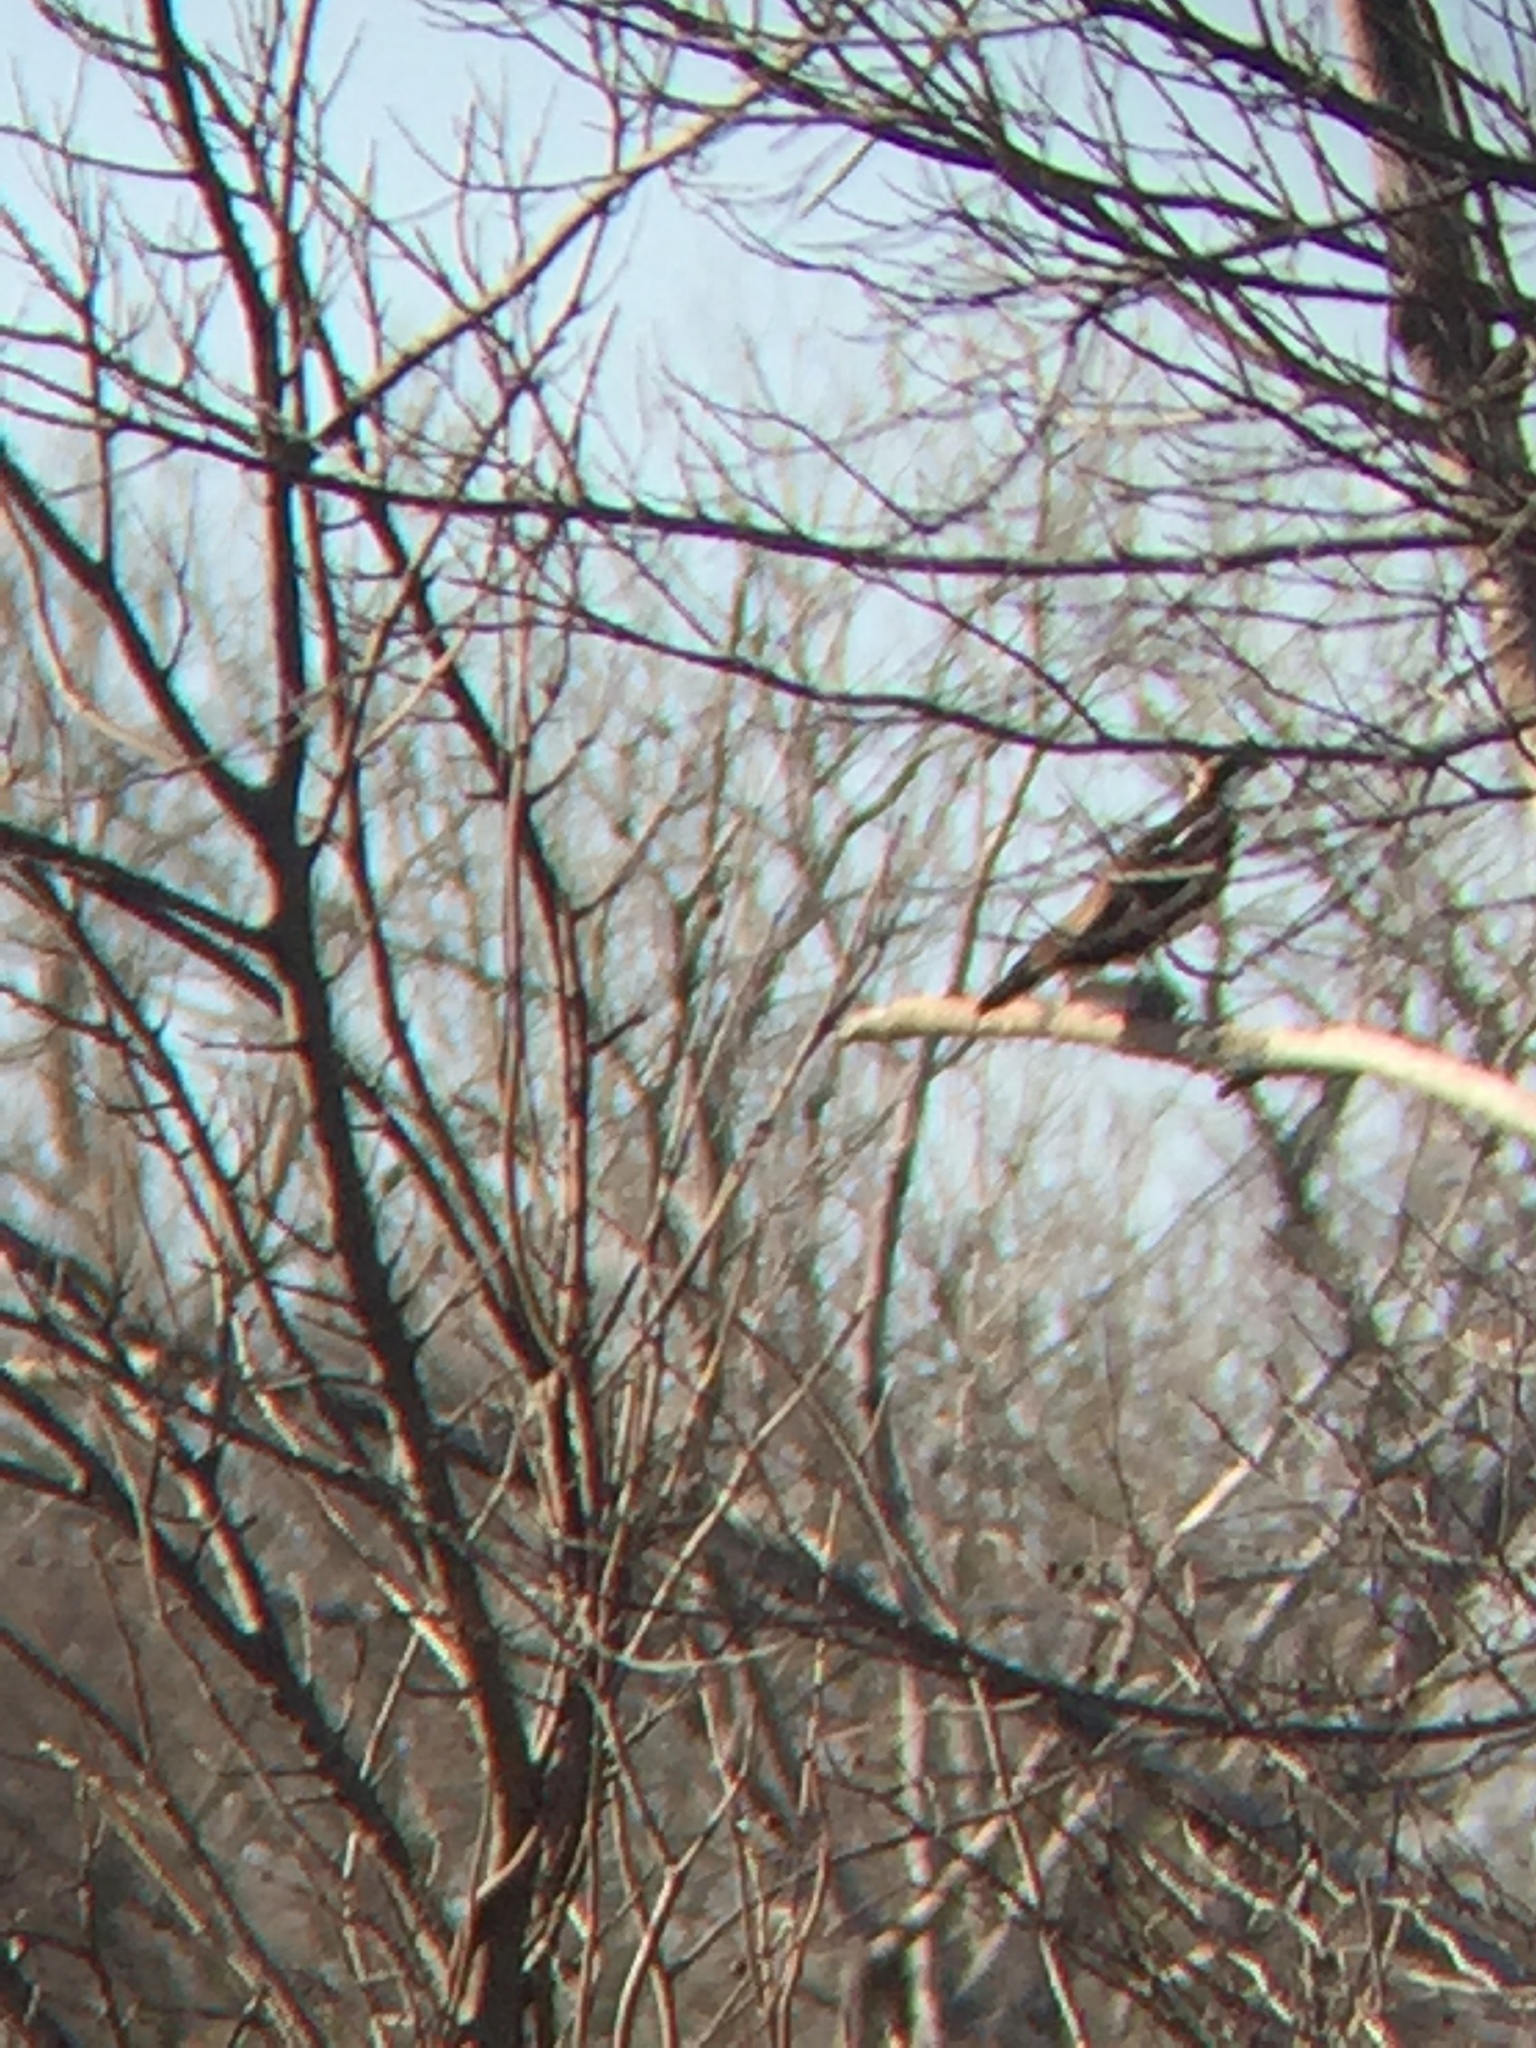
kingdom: Animalia
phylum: Chordata
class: Aves
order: Accipitriformes
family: Pandionidae
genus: Pandion
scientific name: Pandion haliaetus
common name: Osprey
